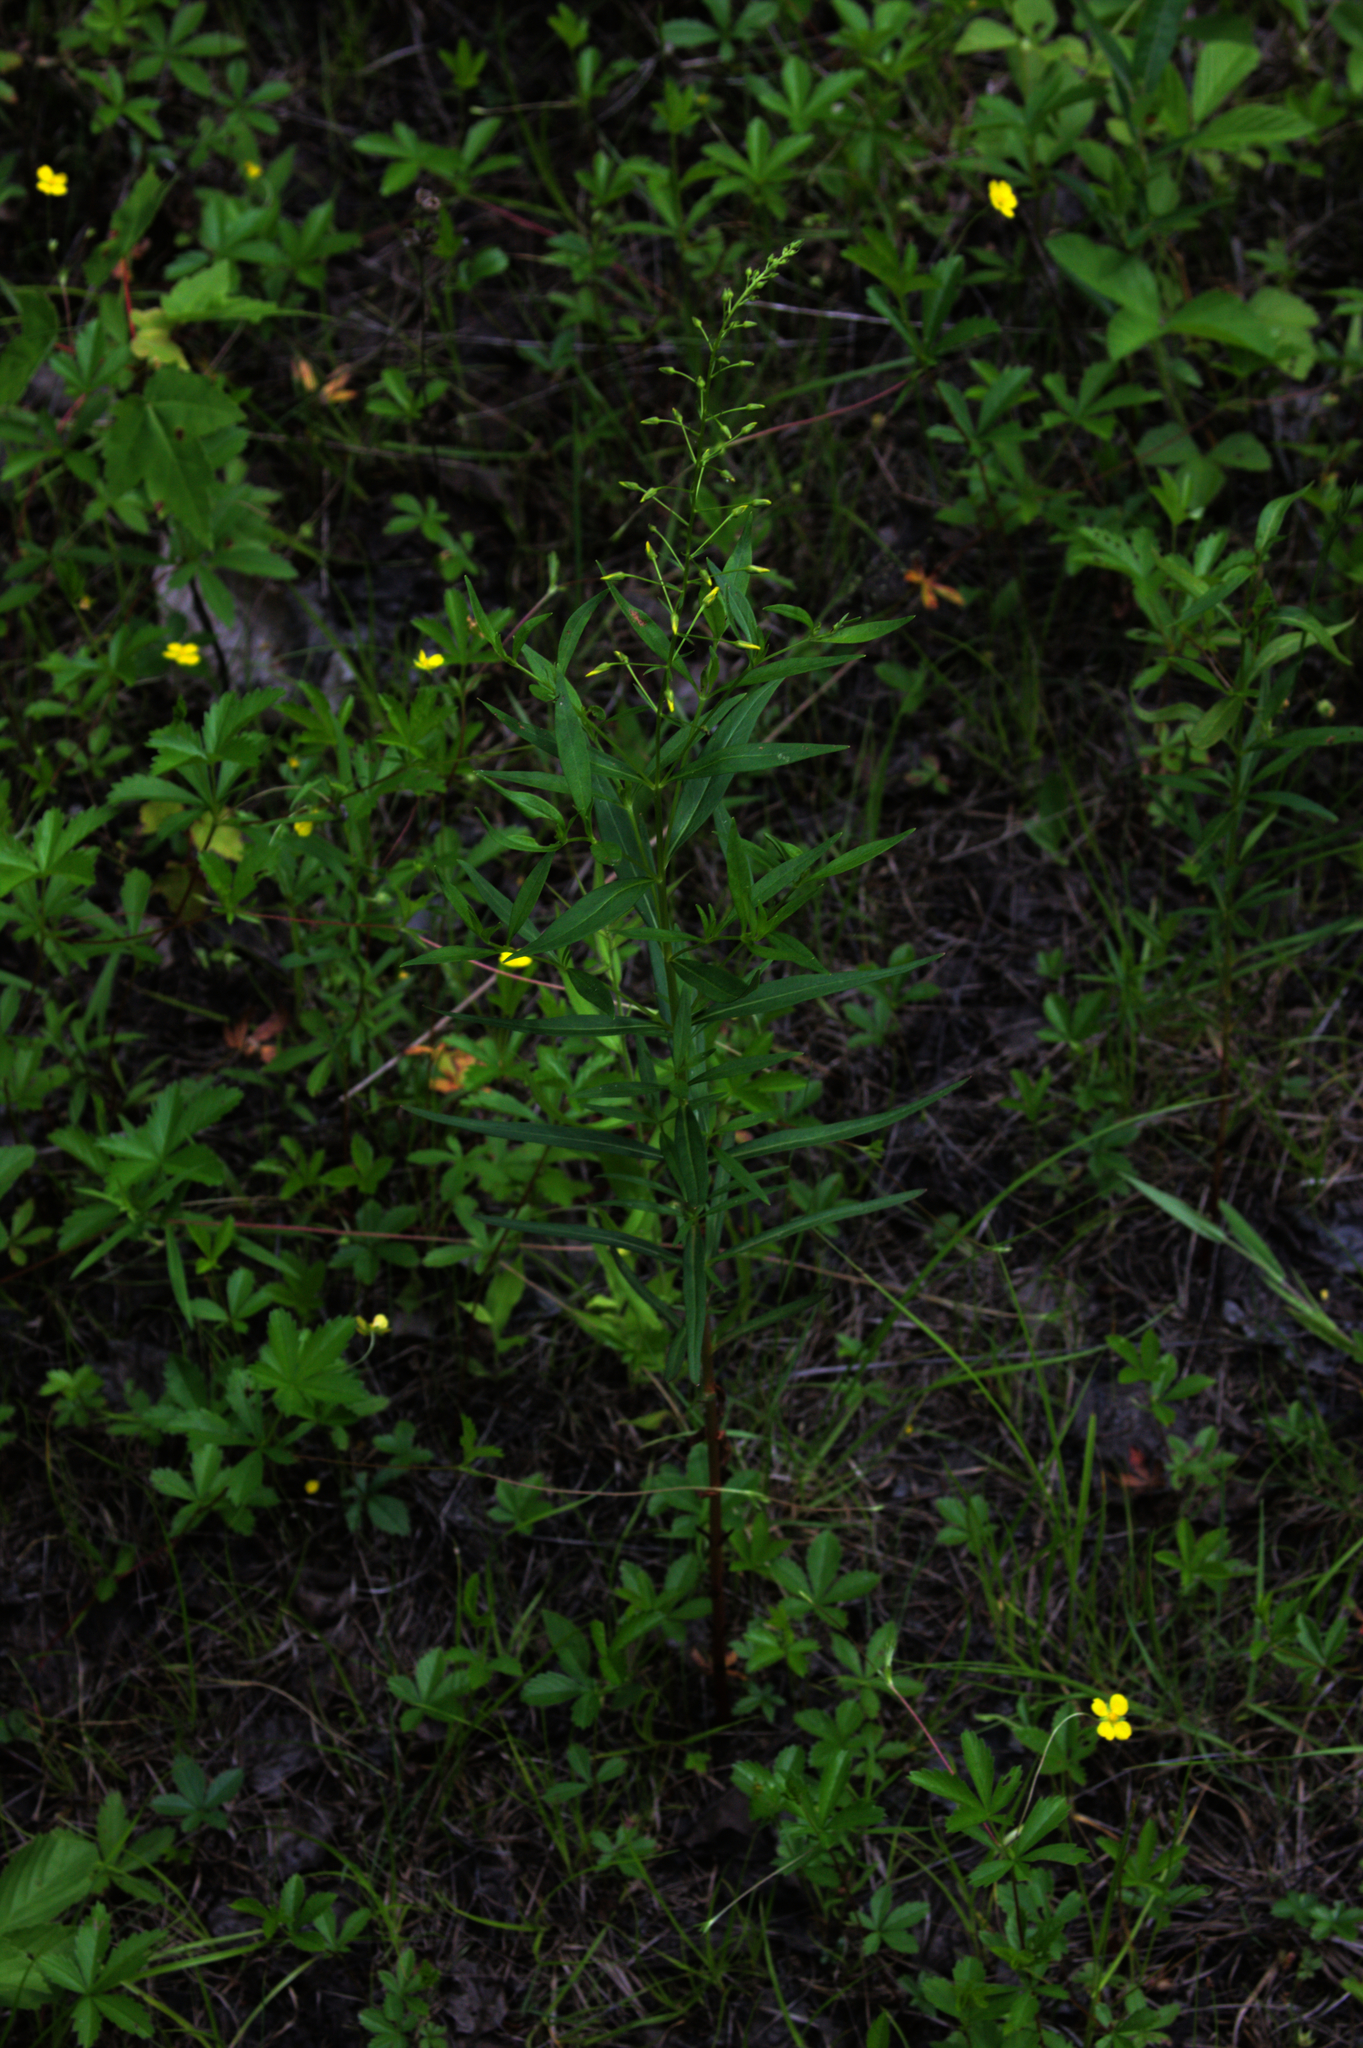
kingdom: Plantae
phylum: Tracheophyta
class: Magnoliopsida
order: Ericales
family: Primulaceae
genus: Lysimachia
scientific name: Lysimachia terrestris
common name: Lake loosestrife
